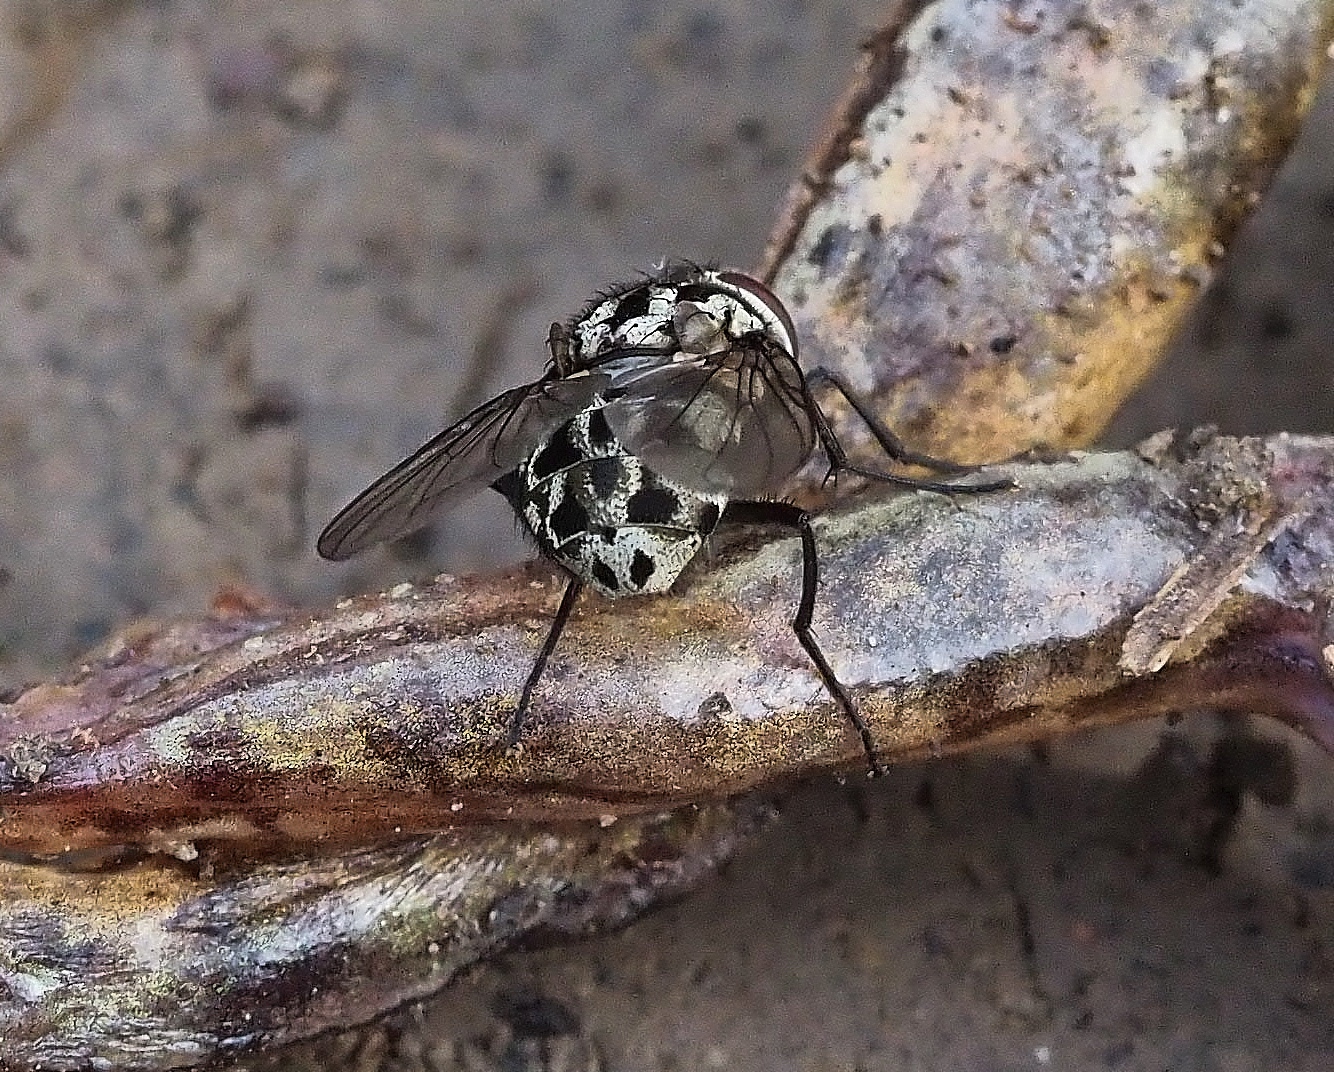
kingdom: Animalia
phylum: Arthropoda
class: Insecta
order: Diptera
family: Muscidae
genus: Graphomya
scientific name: Graphomya maculata
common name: Muscid fly
